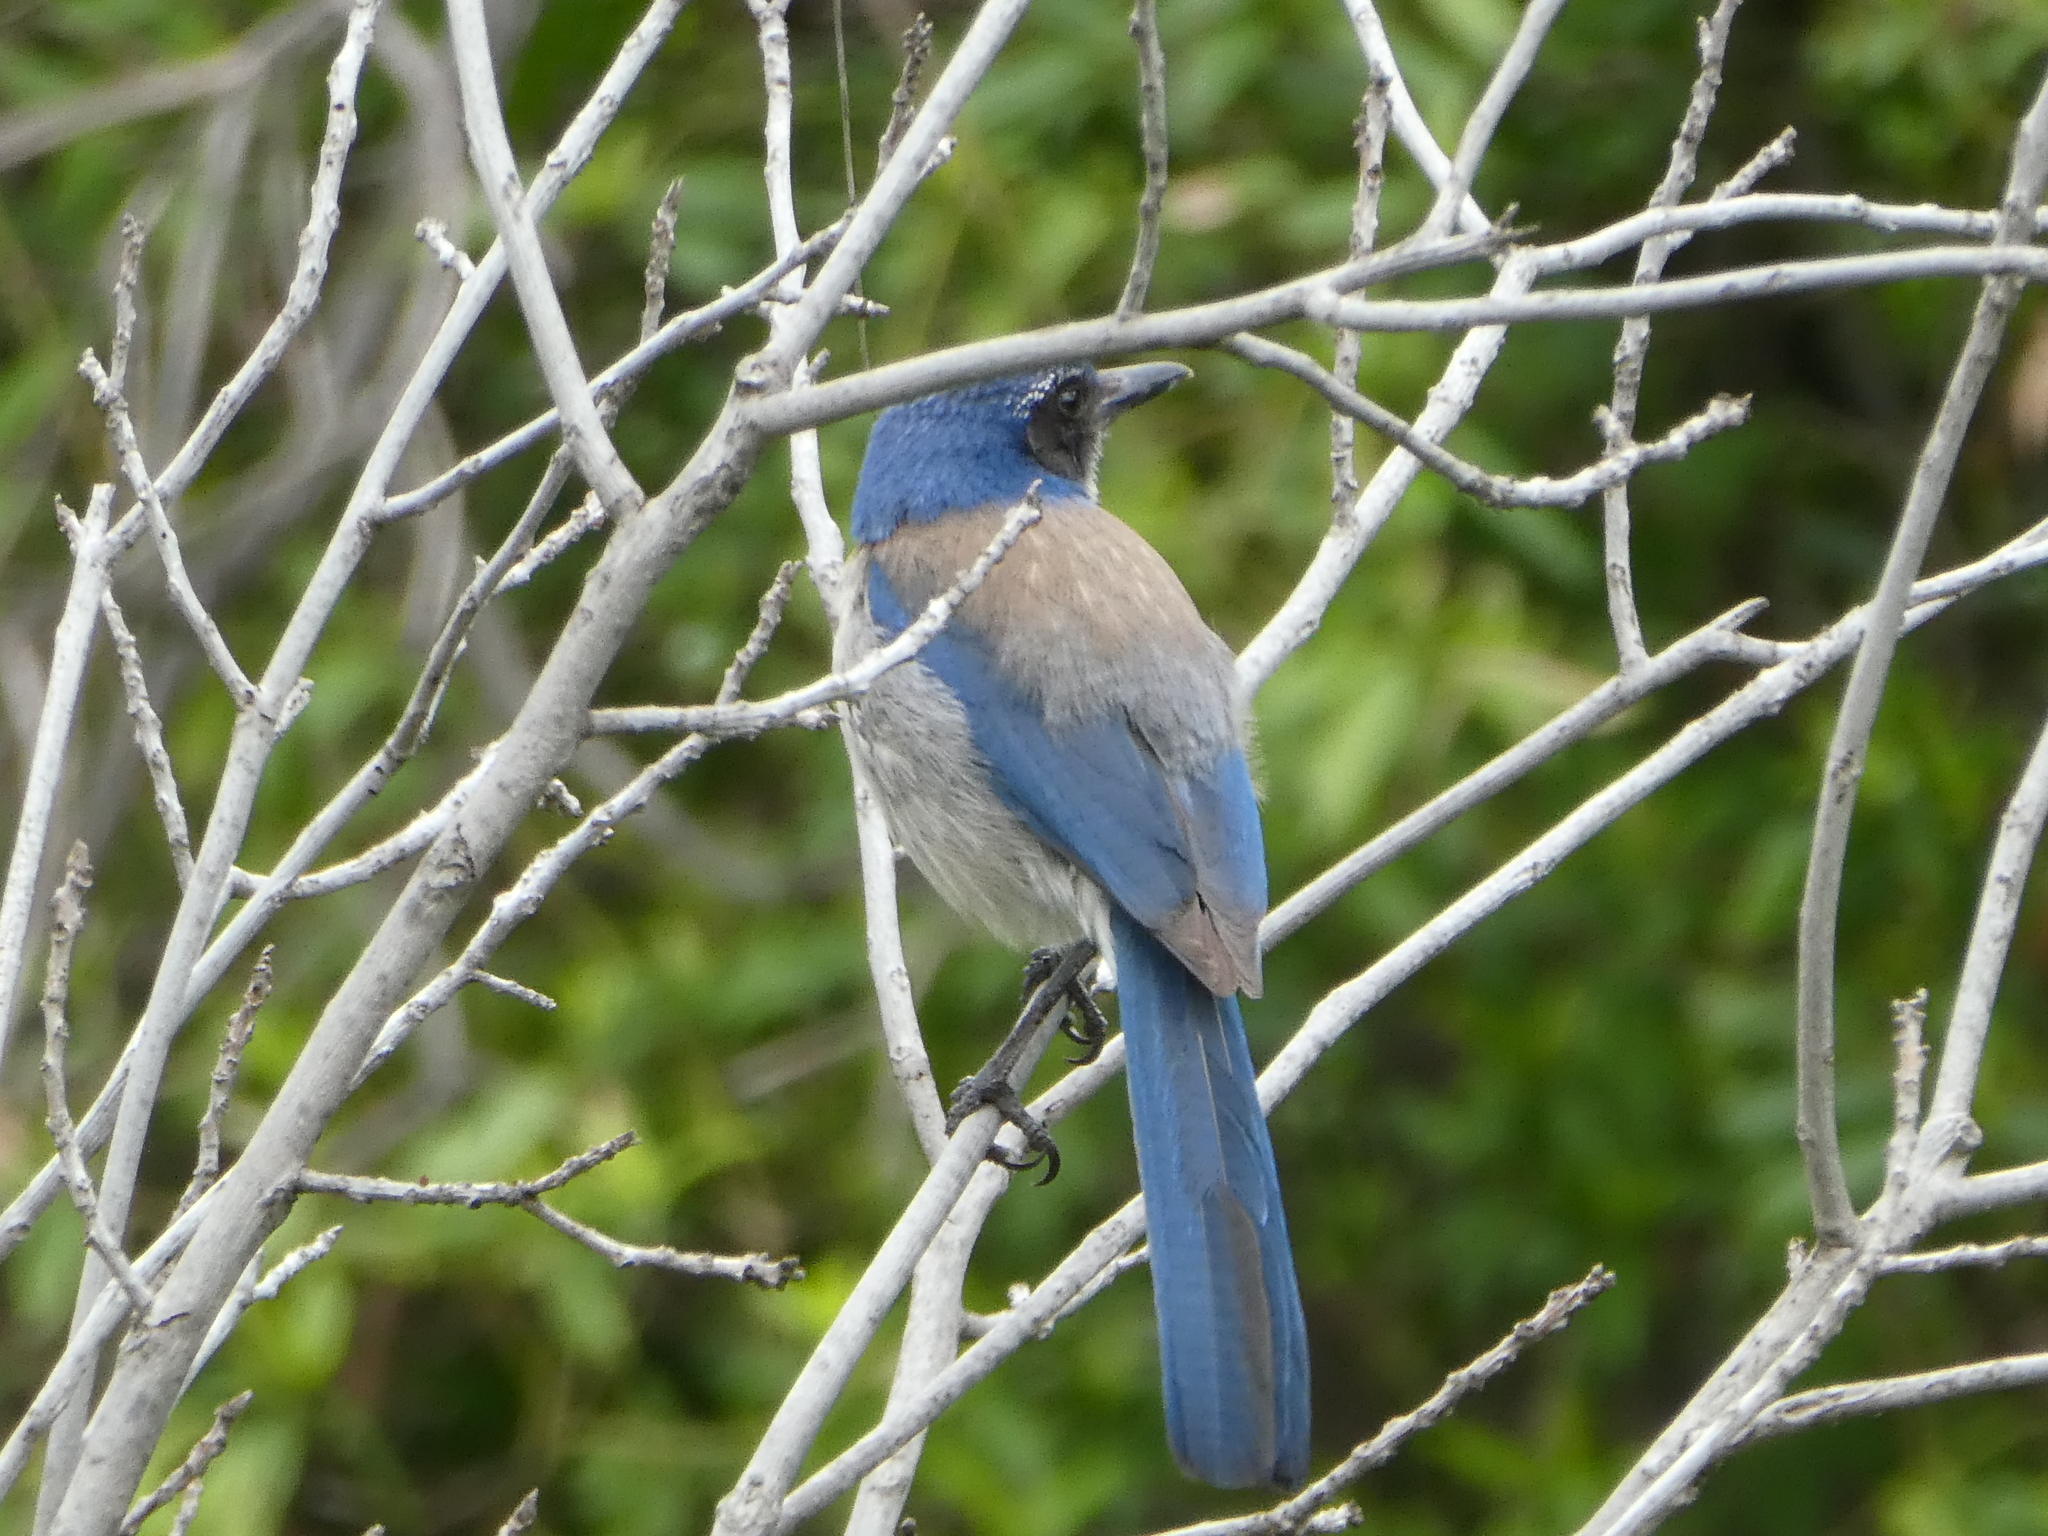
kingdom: Animalia
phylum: Chordata
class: Aves
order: Passeriformes
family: Corvidae
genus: Aphelocoma
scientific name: Aphelocoma californica
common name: California scrub-jay
